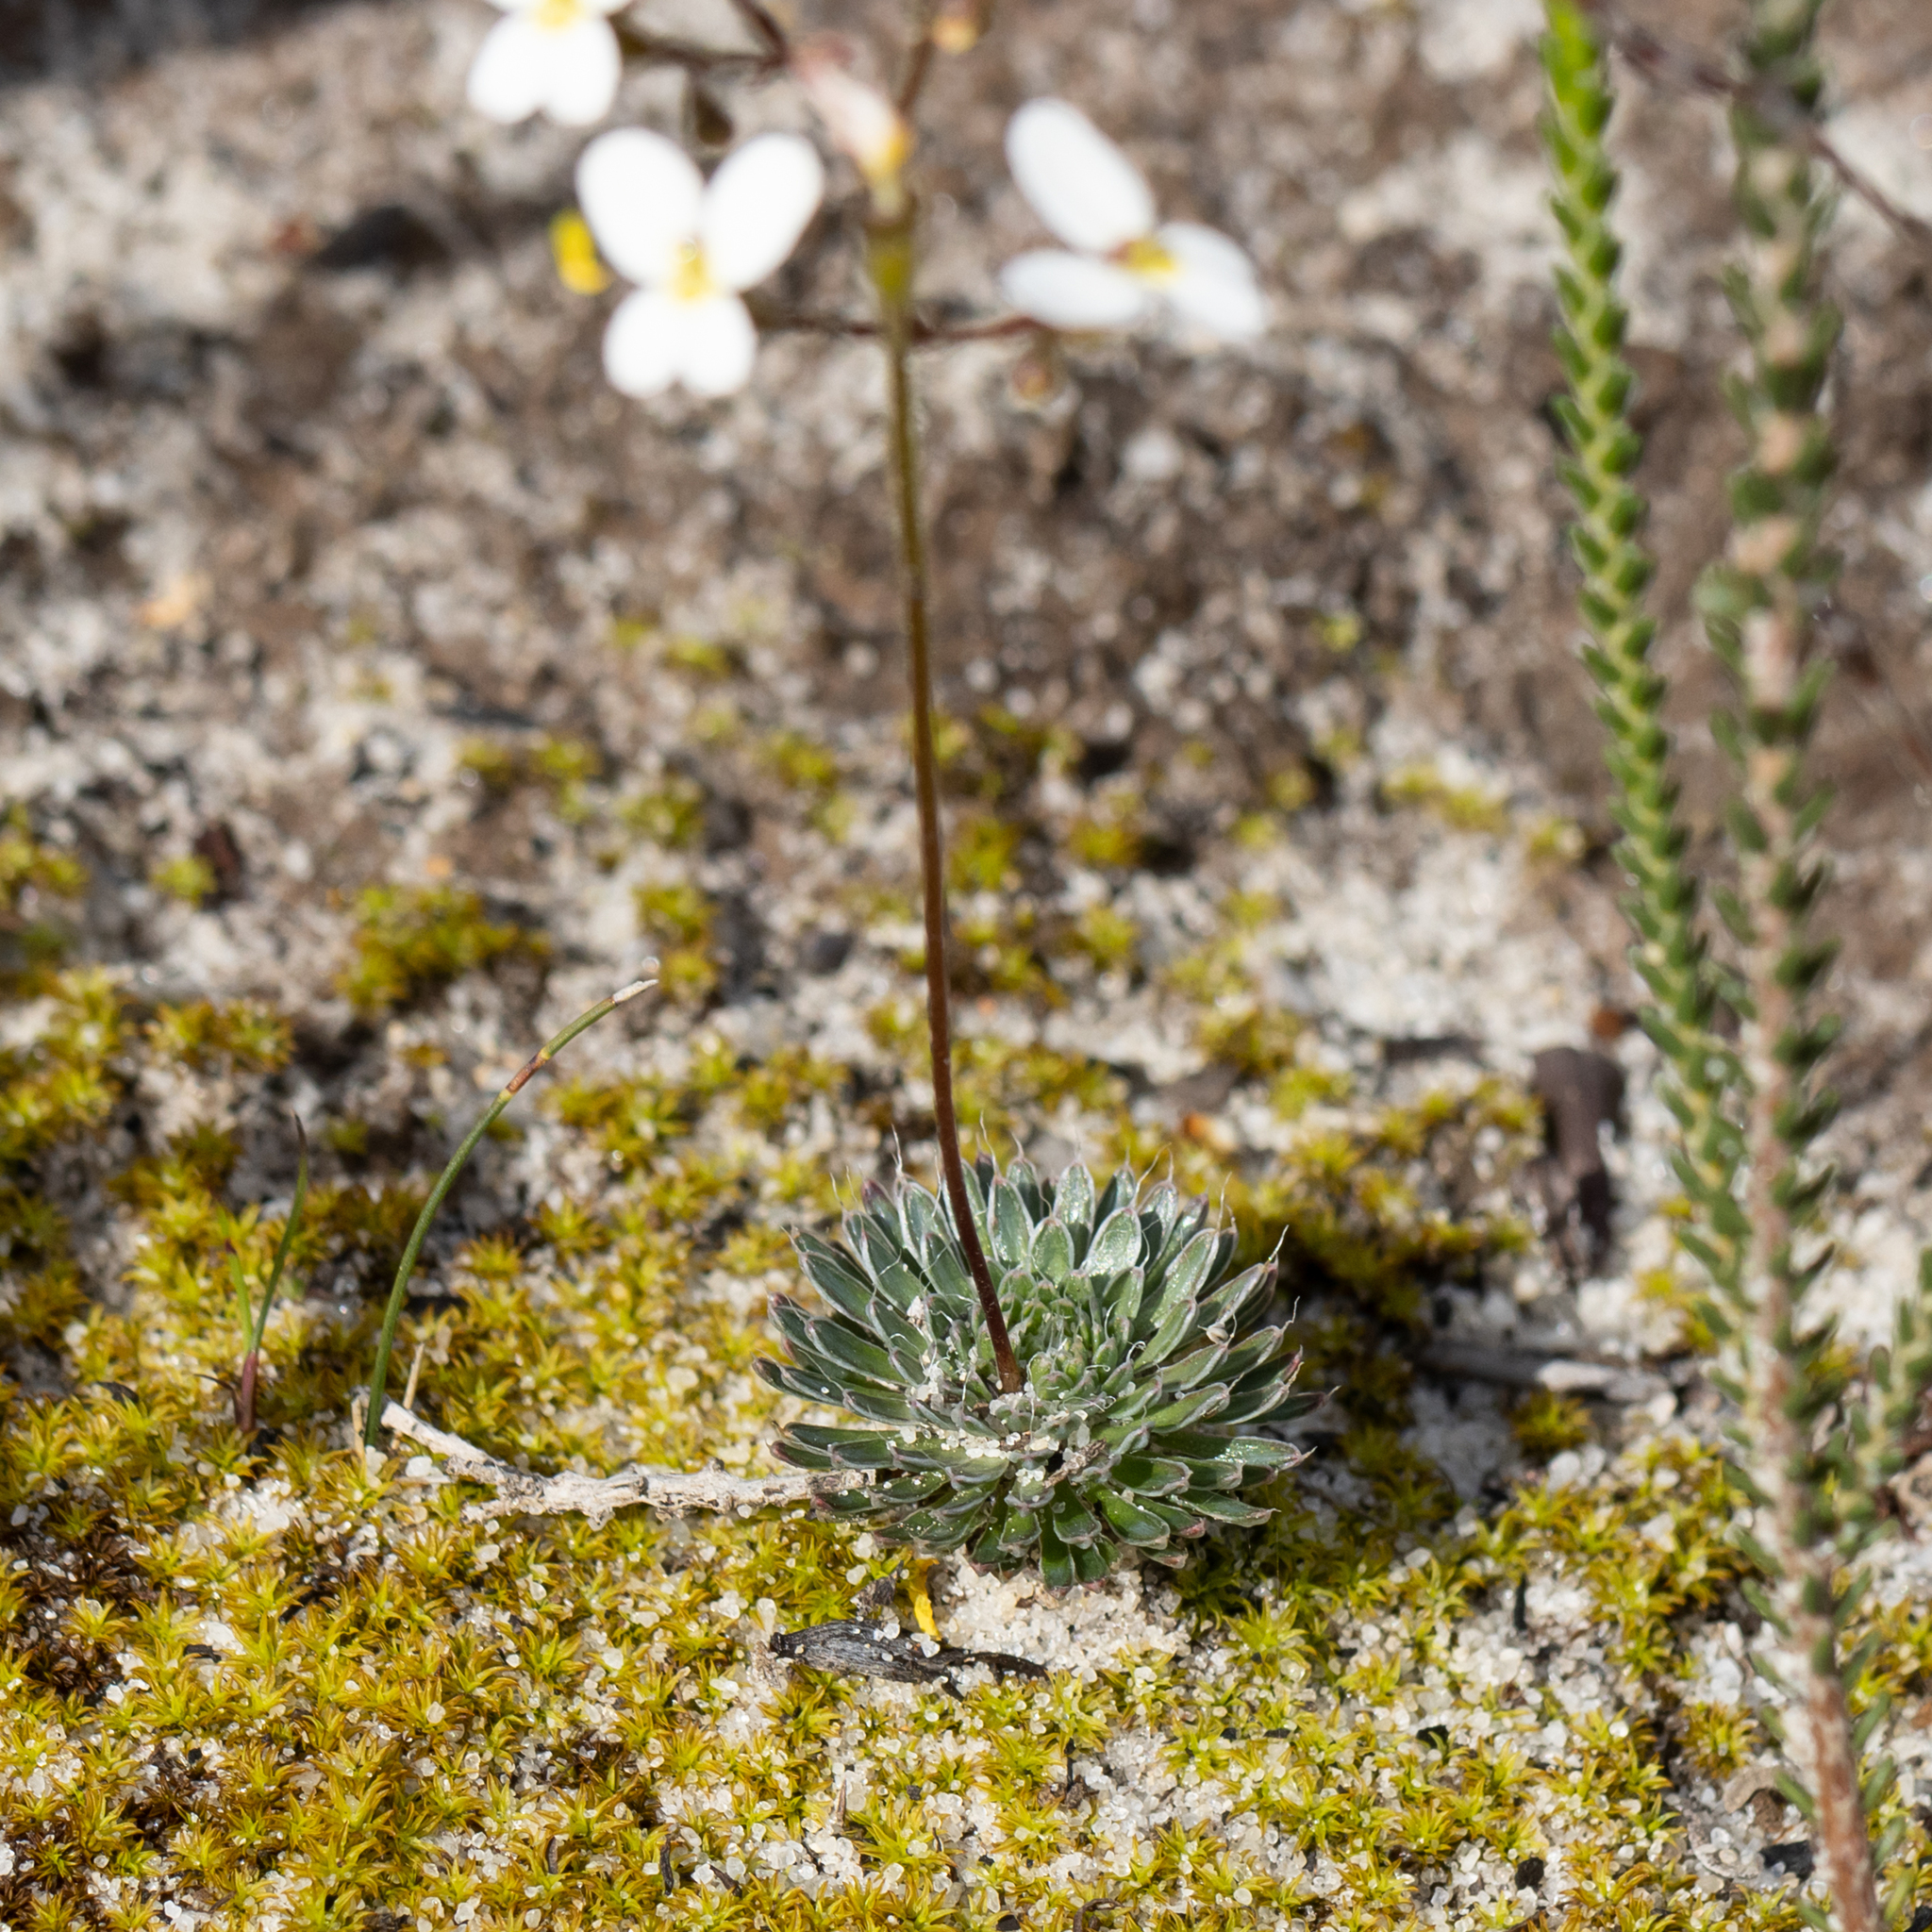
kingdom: Plantae
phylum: Tracheophyta
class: Magnoliopsida
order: Asterales
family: Stylidiaceae
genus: Stylidium
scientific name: Stylidium piliferum
